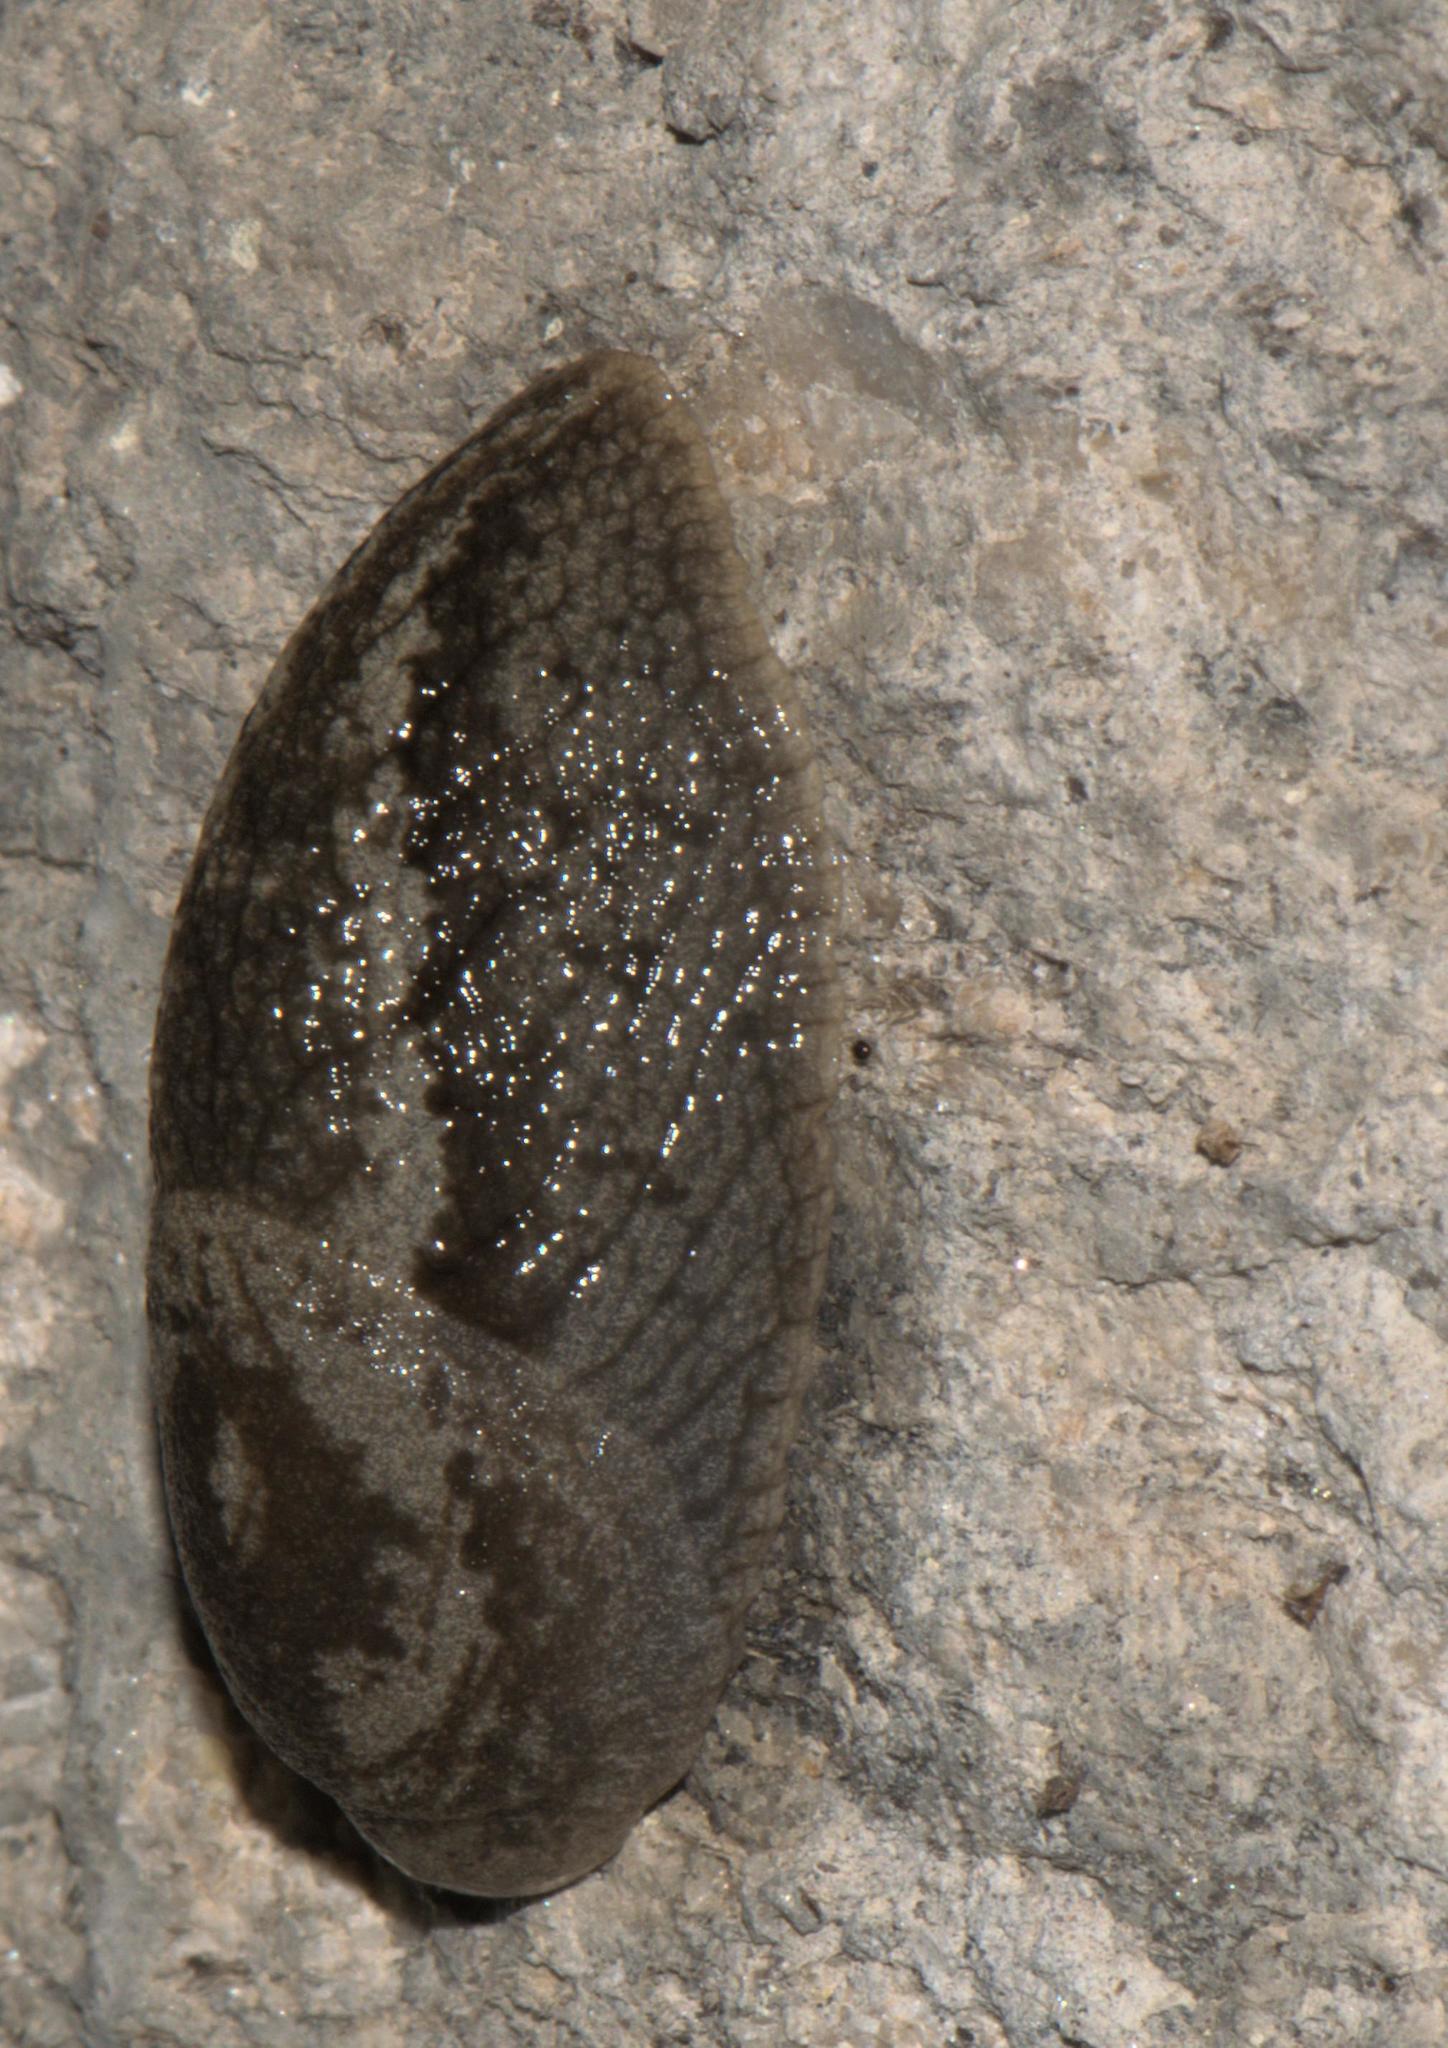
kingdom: Animalia
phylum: Mollusca
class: Gastropoda
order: Stylommatophora
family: Anadenidae
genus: Anadenus
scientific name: Anadenus altivagus
